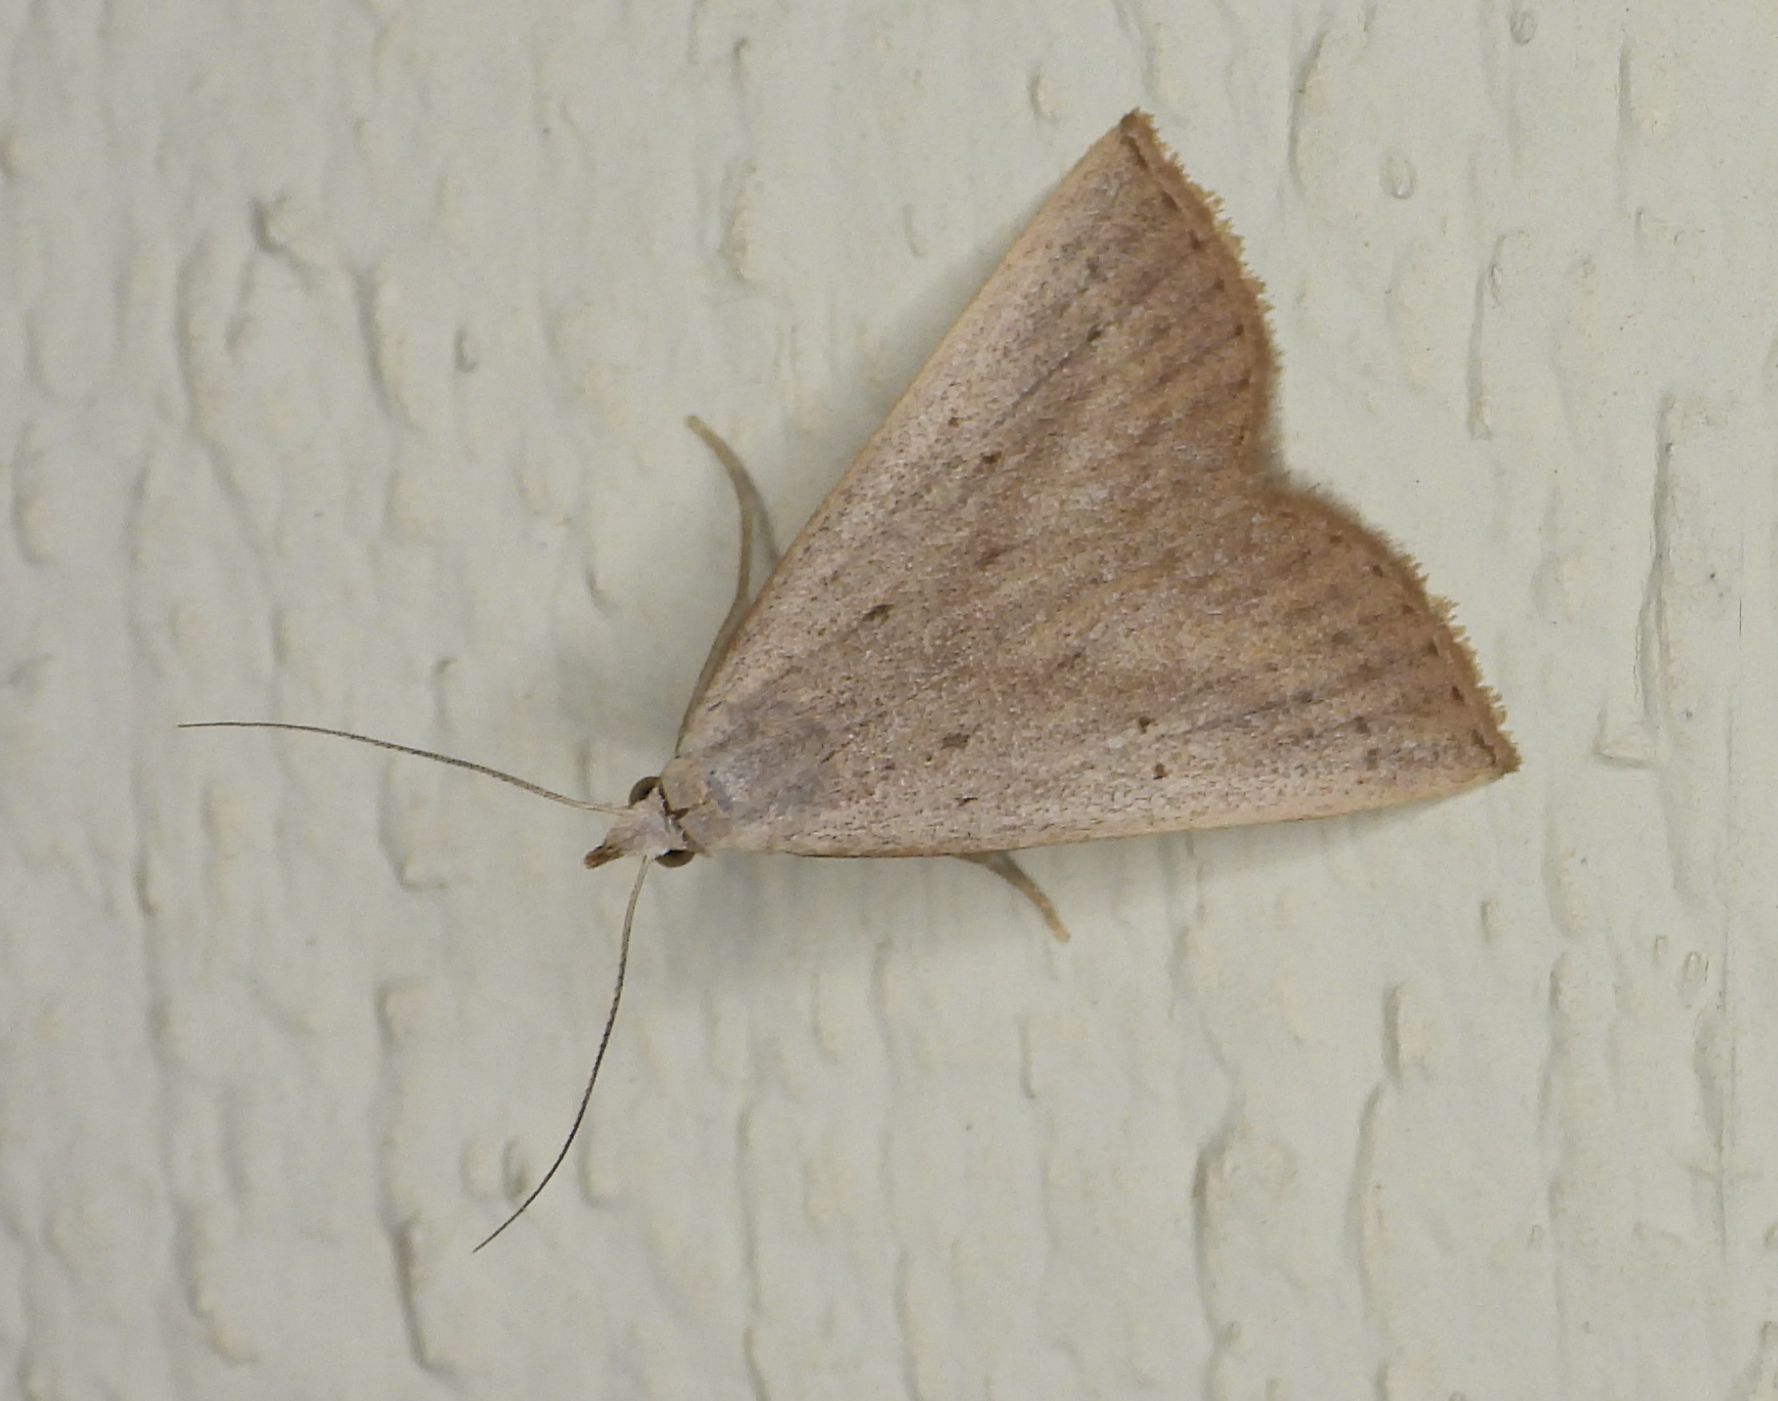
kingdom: Animalia
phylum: Arthropoda
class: Insecta
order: Lepidoptera
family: Erebidae
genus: Macrochilo
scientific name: Macrochilo louisiana
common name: Louisiana macrochilo
